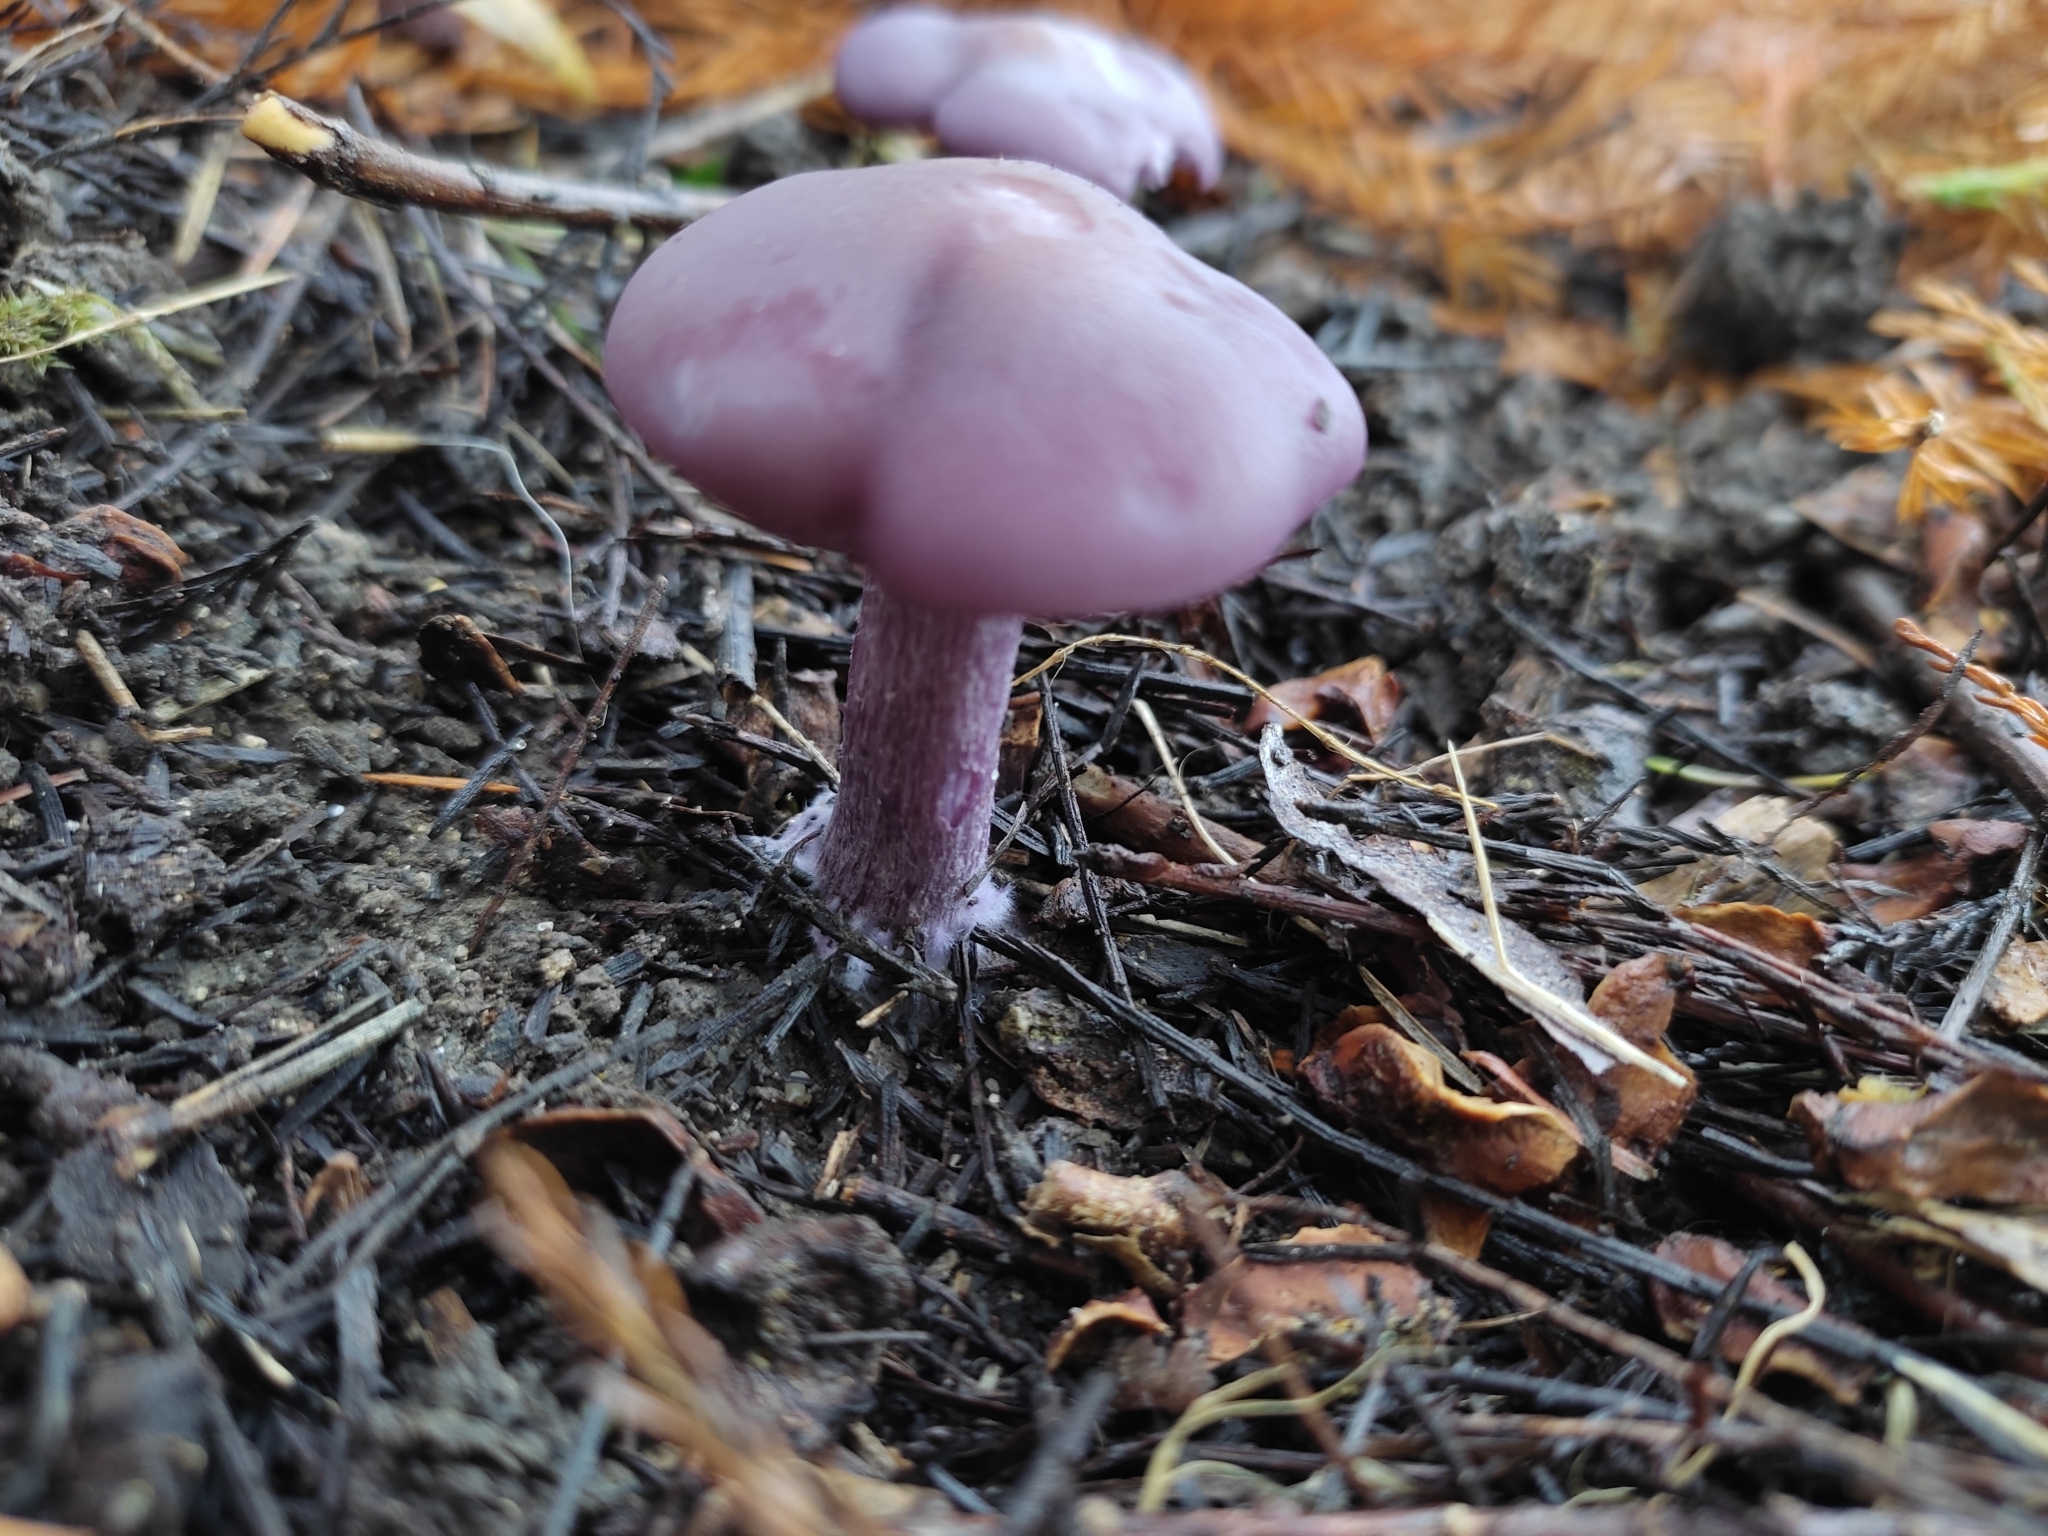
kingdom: Fungi
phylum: Basidiomycota
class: Agaricomycetes
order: Agaricales
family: Hydnangiaceae
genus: Laccaria
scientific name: Laccaria amethystina
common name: Amethyst deceiver
